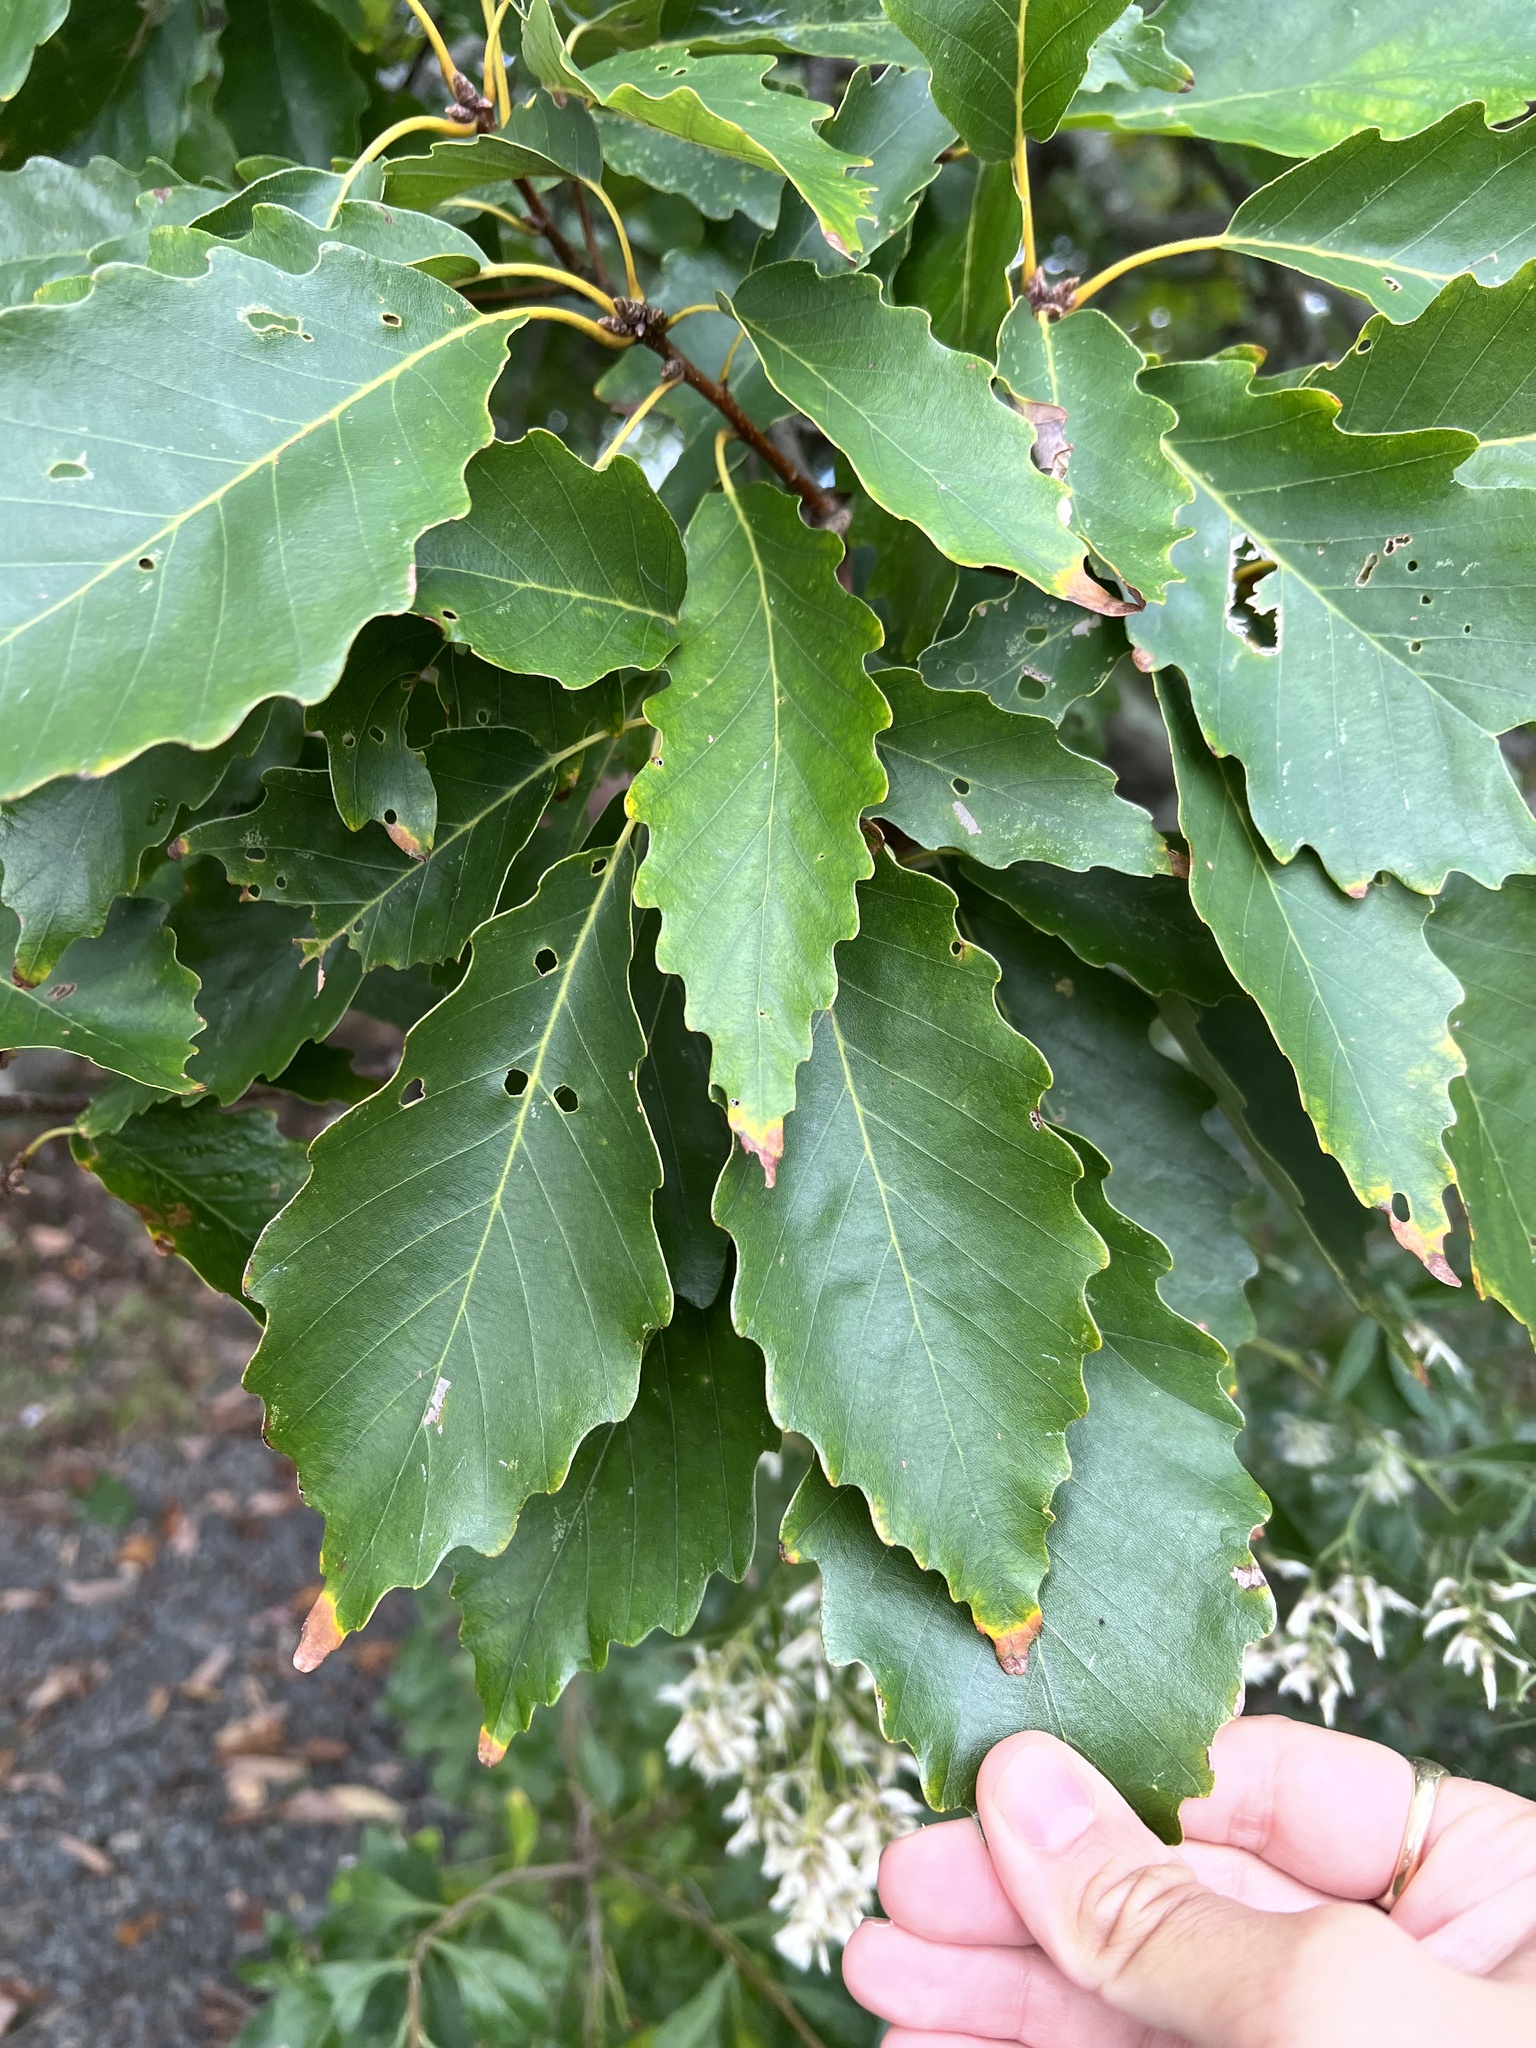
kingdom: Plantae
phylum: Tracheophyta
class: Magnoliopsida
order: Fagales
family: Fagaceae
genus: Quercus
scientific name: Quercus montana
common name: Chestnut oak
